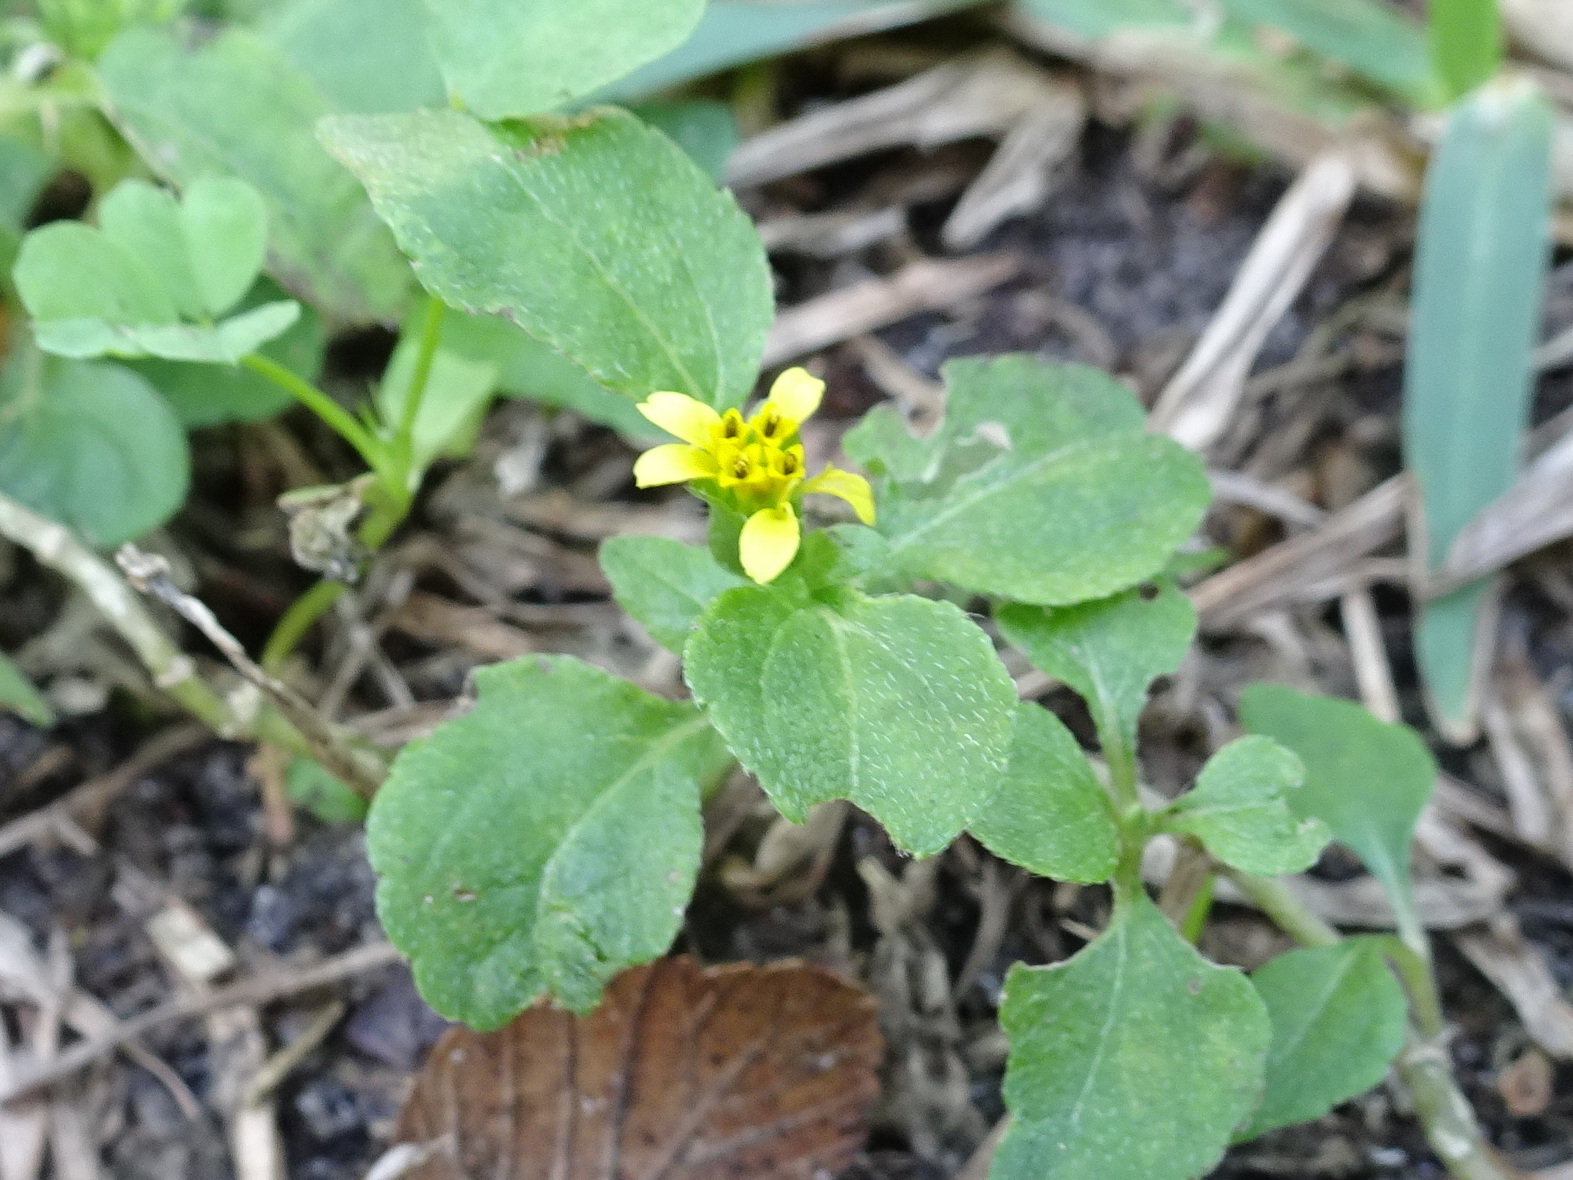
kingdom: Plantae
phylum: Tracheophyta
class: Magnoliopsida
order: Asterales
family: Asteraceae
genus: Calyptocarpus
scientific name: Calyptocarpus vialis
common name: Straggler daisy
